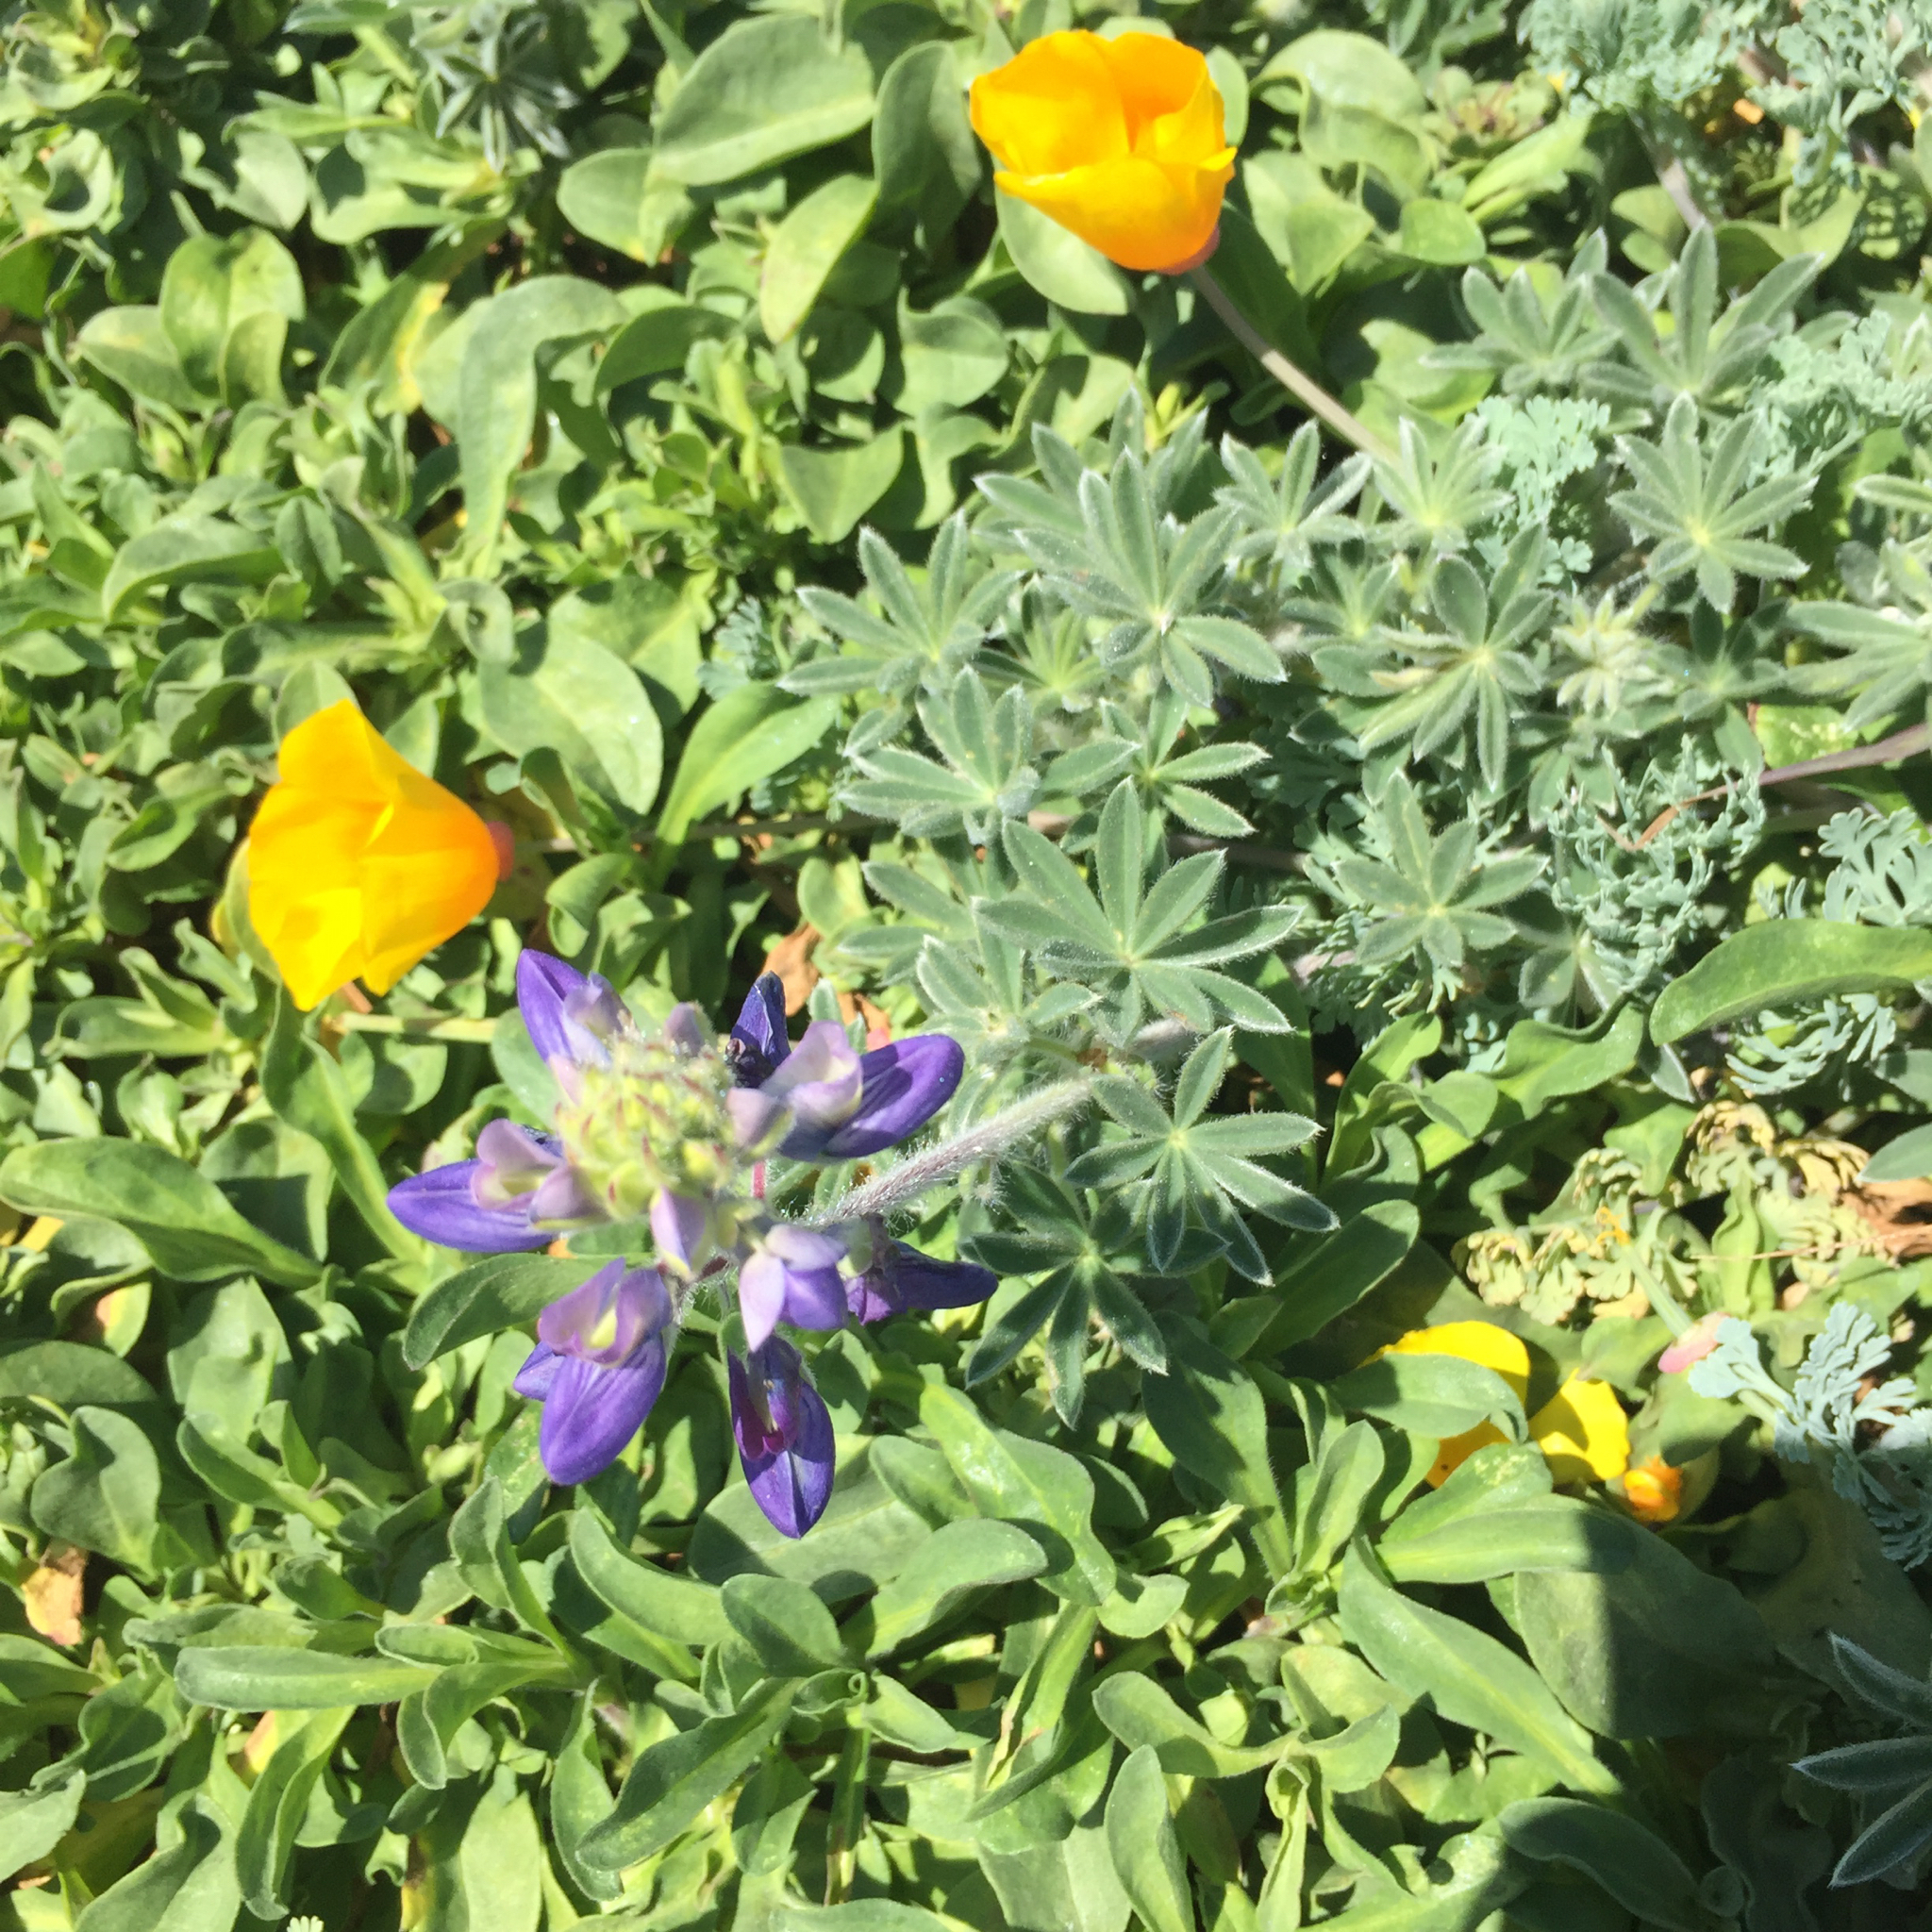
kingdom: Plantae
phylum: Tracheophyta
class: Magnoliopsida
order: Fabales
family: Fabaceae
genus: Lupinus
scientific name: Lupinus variicolor
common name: Lindley's varied lupine
